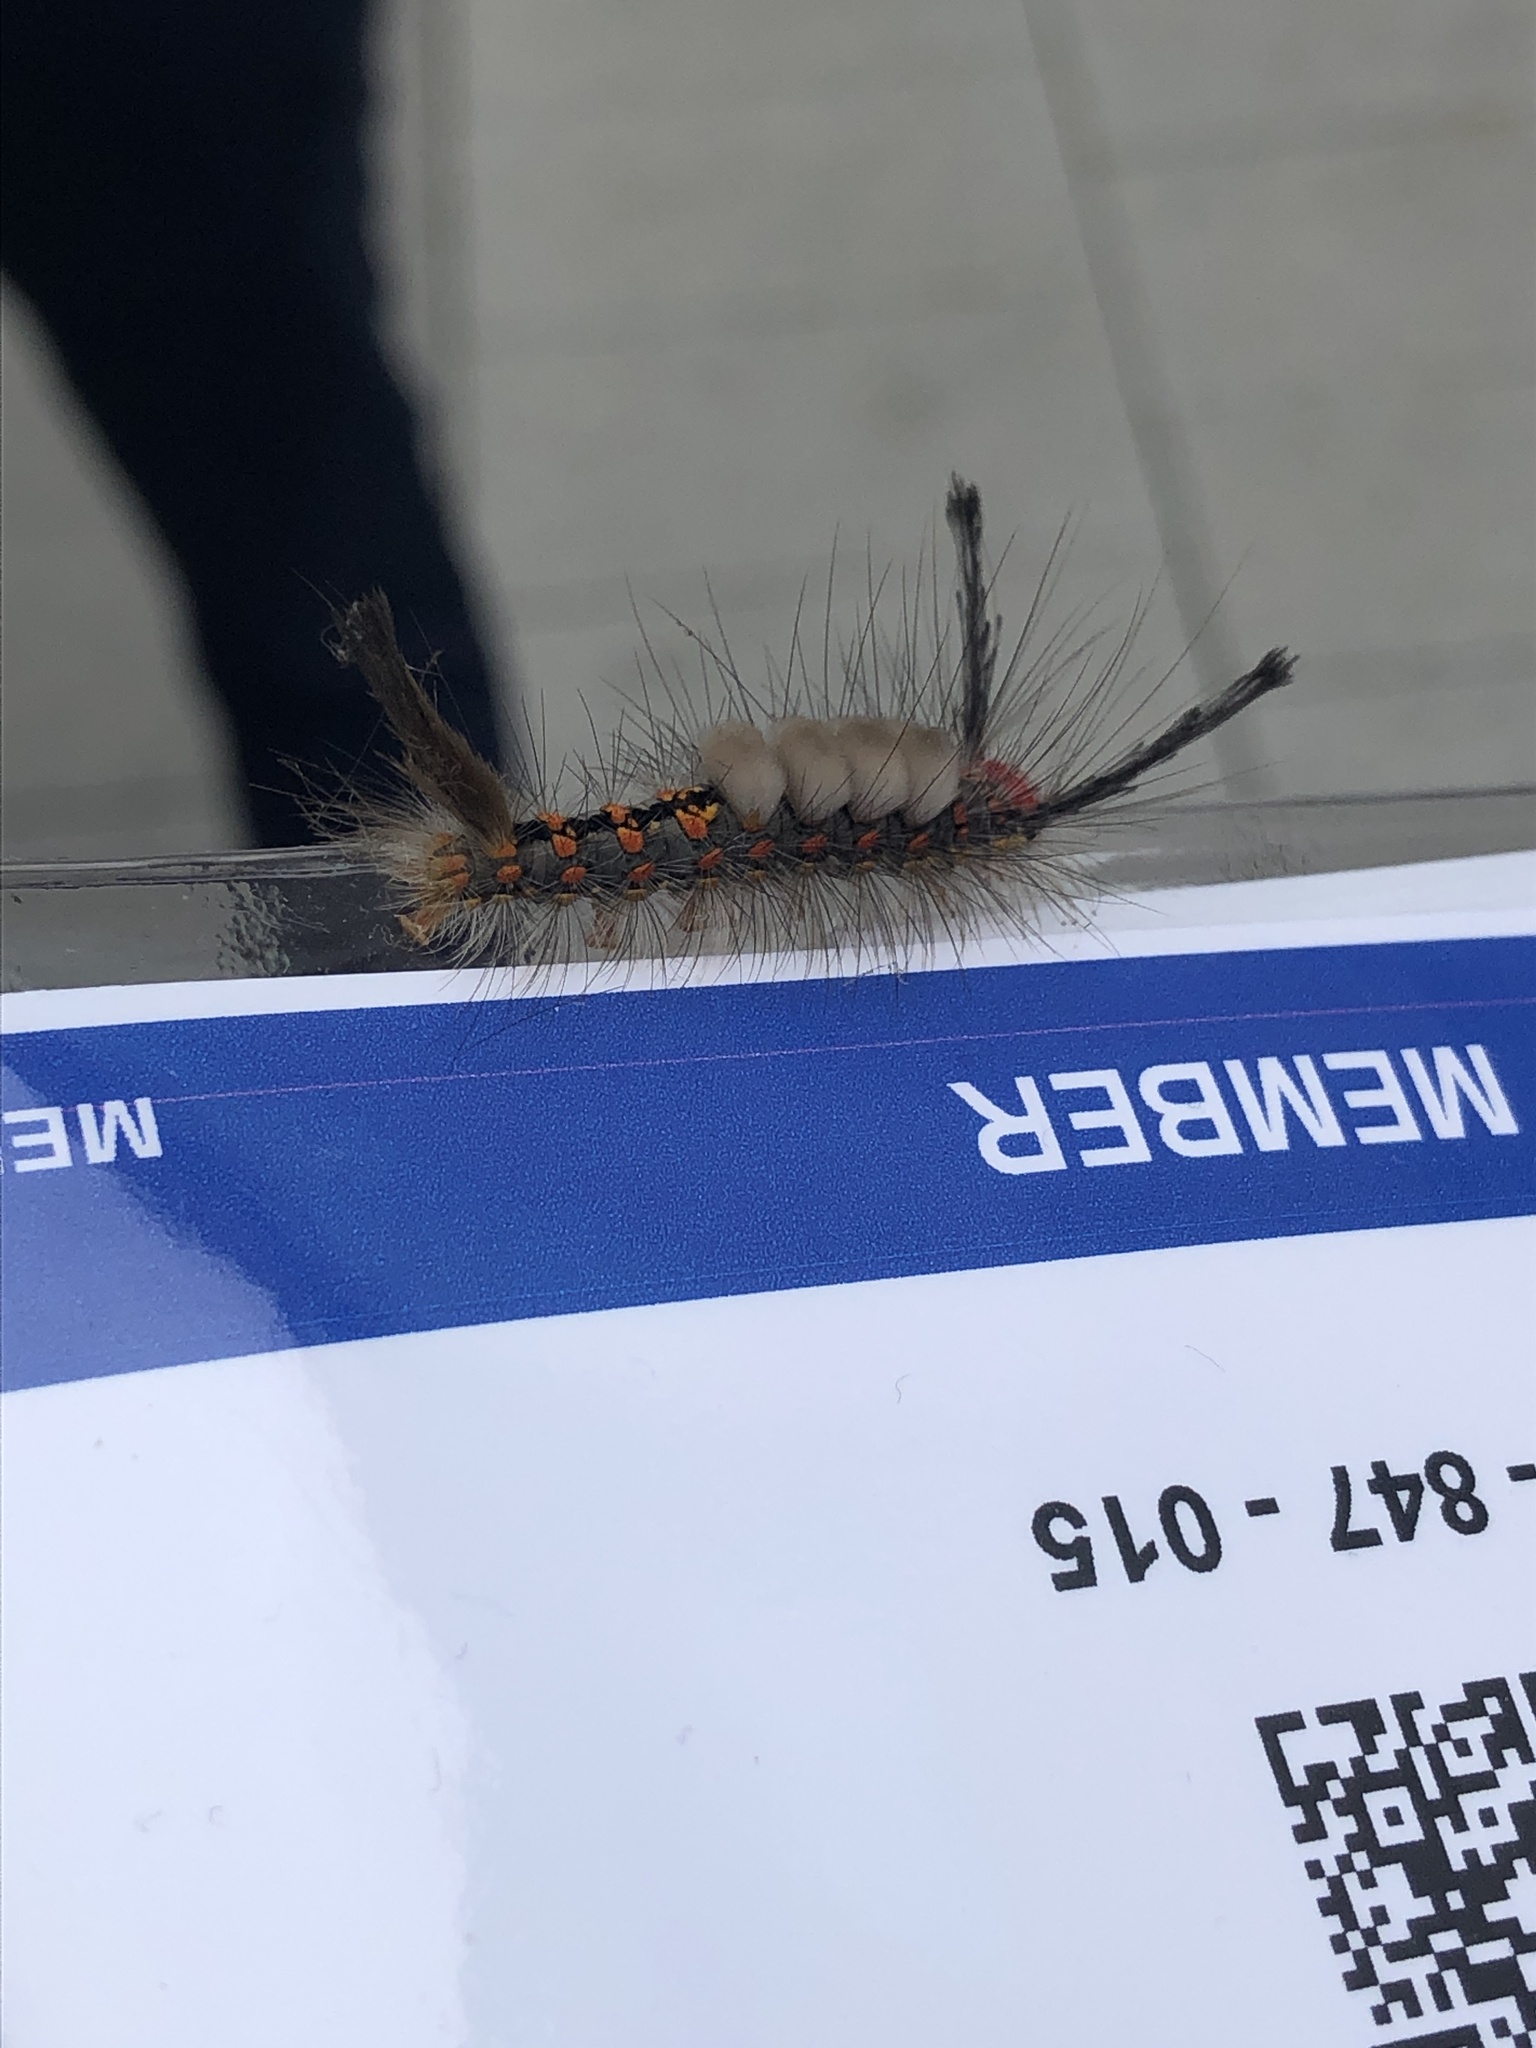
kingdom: Animalia
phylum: Arthropoda
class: Insecta
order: Lepidoptera
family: Erebidae
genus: Orgyia
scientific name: Orgyia detrita
